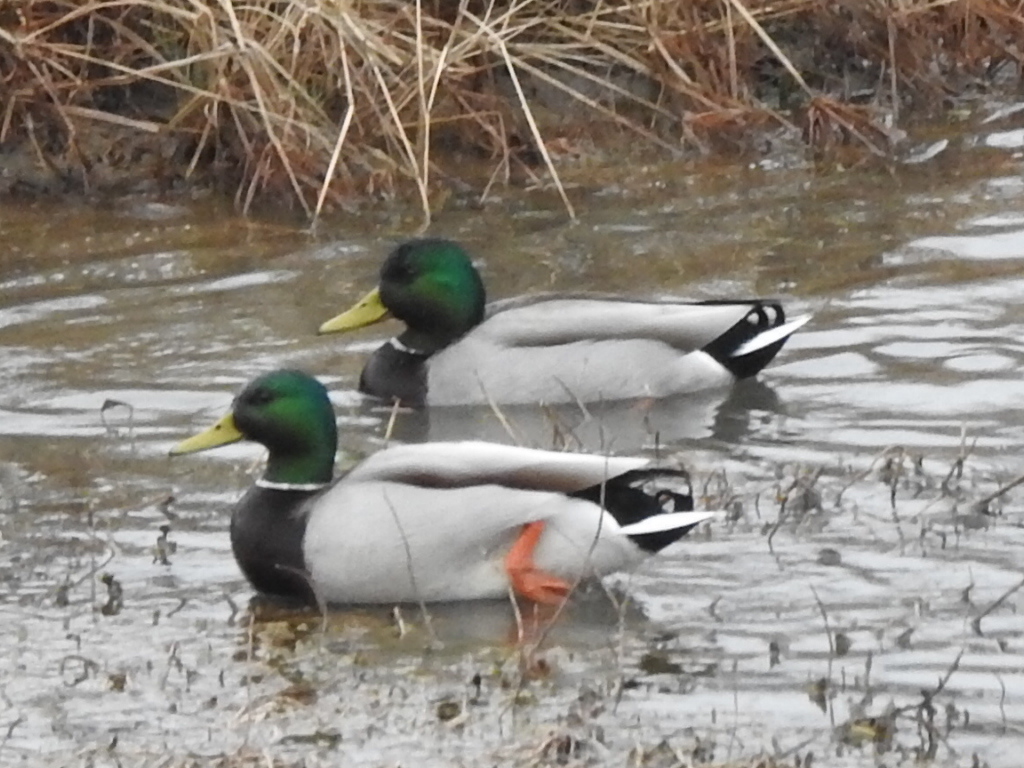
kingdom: Animalia
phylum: Chordata
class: Aves
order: Anseriformes
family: Anatidae
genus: Anas
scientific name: Anas platyrhynchos
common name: Mallard
